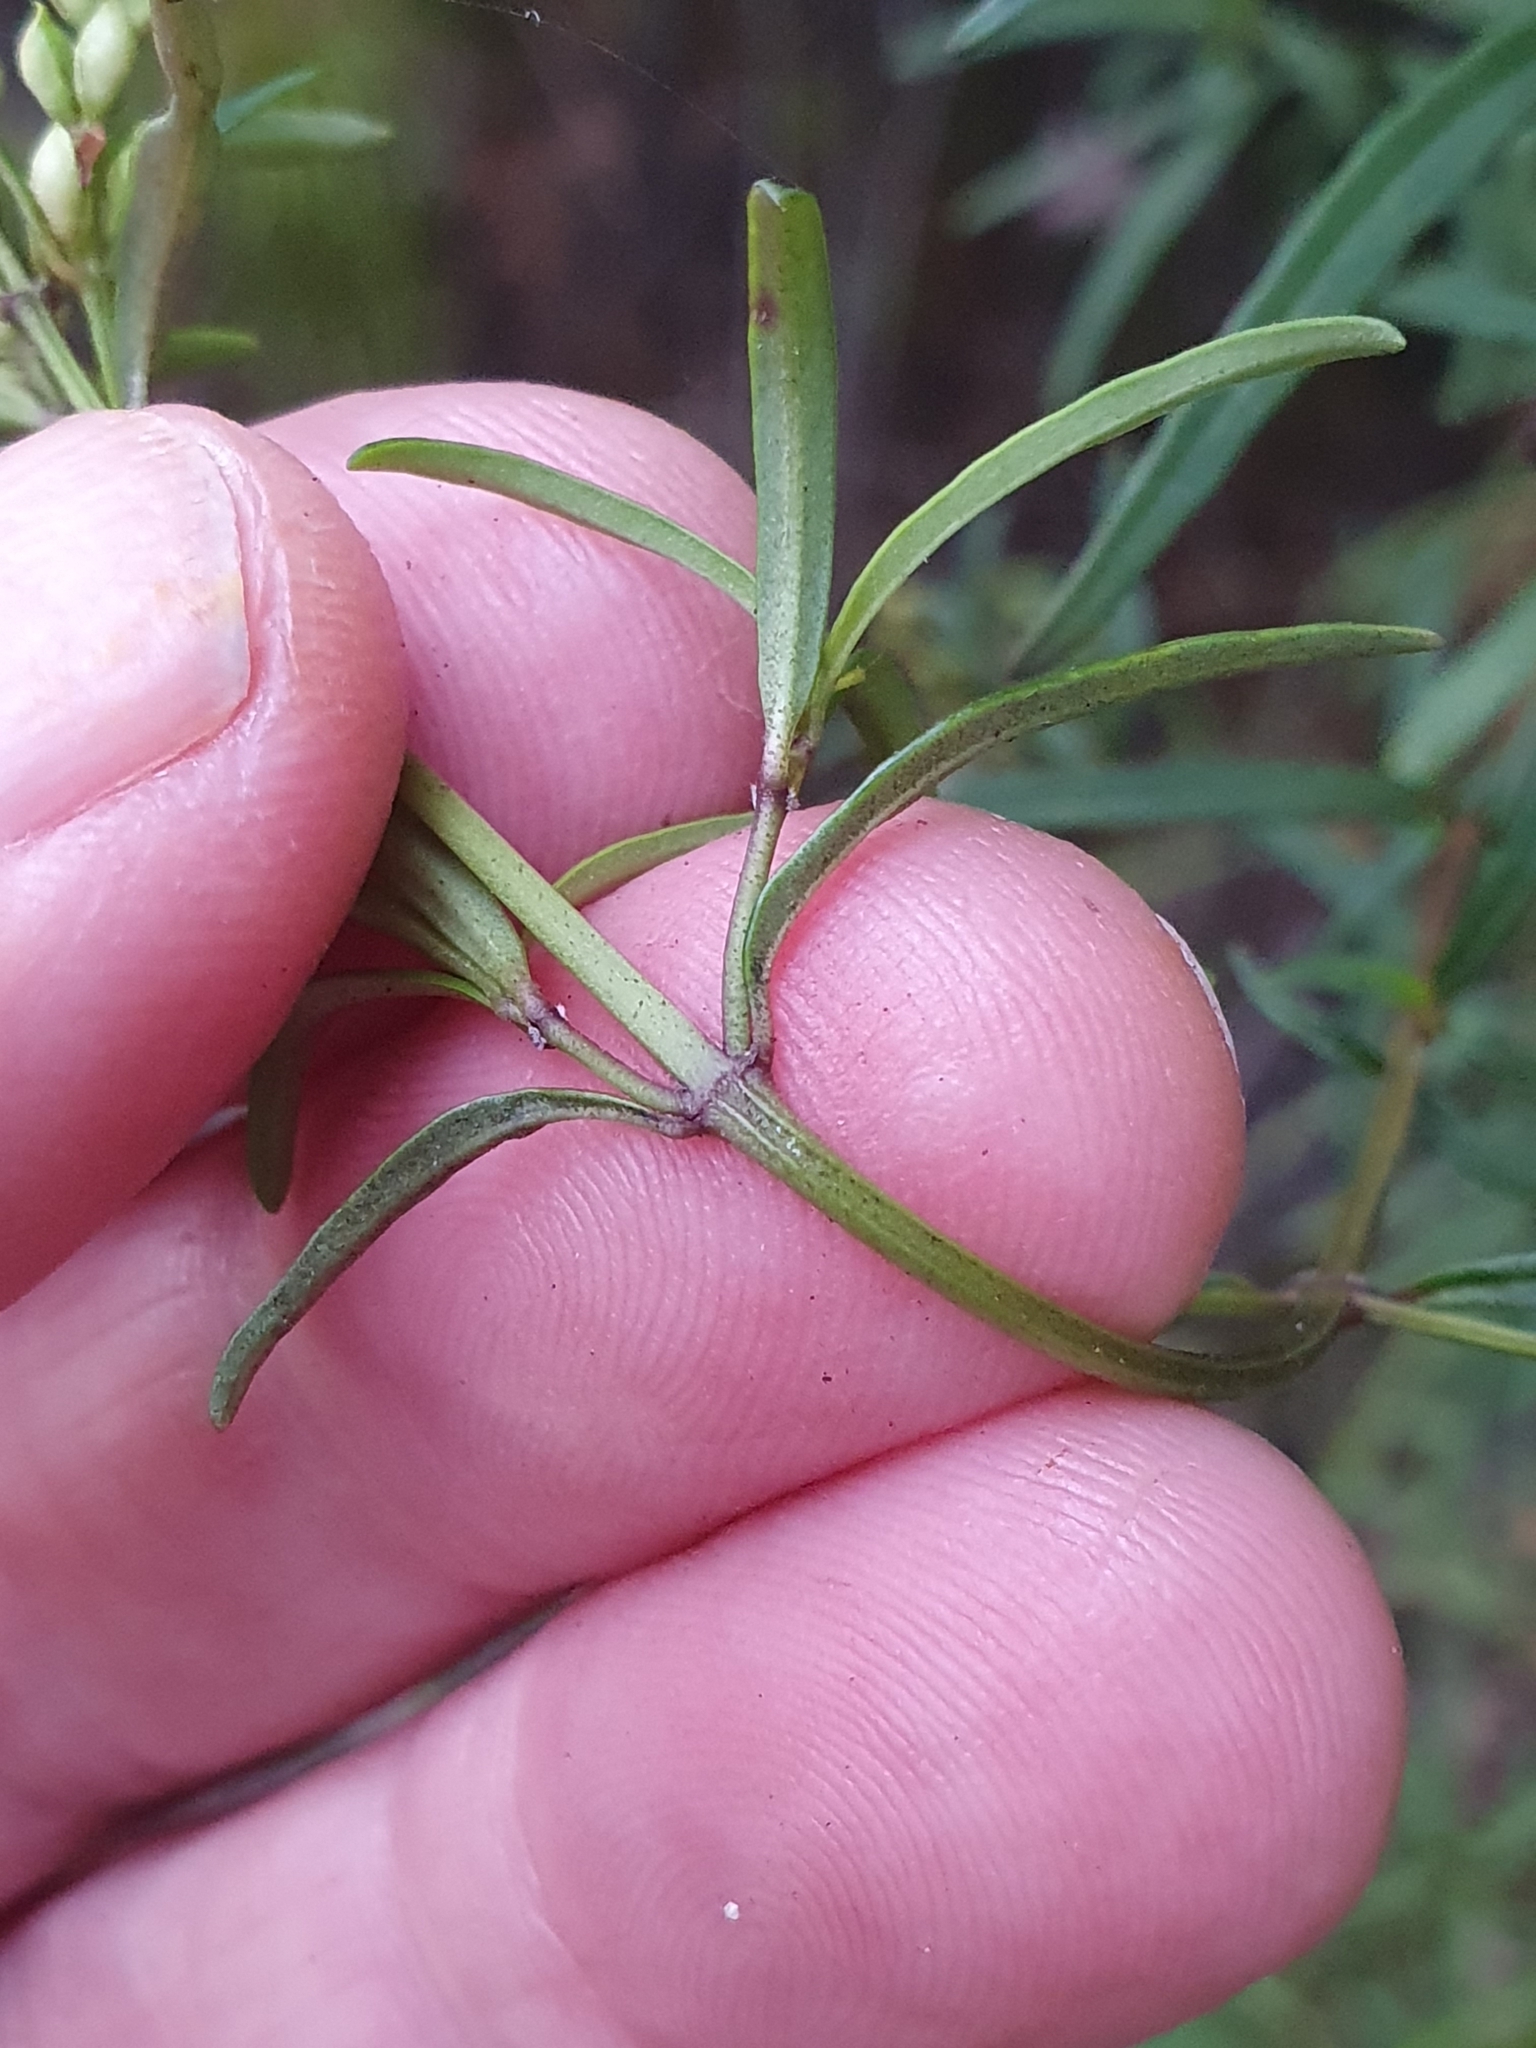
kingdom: Plantae
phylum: Tracheophyta
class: Magnoliopsida
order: Lamiales
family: Lamiaceae
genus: Prostanthera
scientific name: Prostanthera linearis
